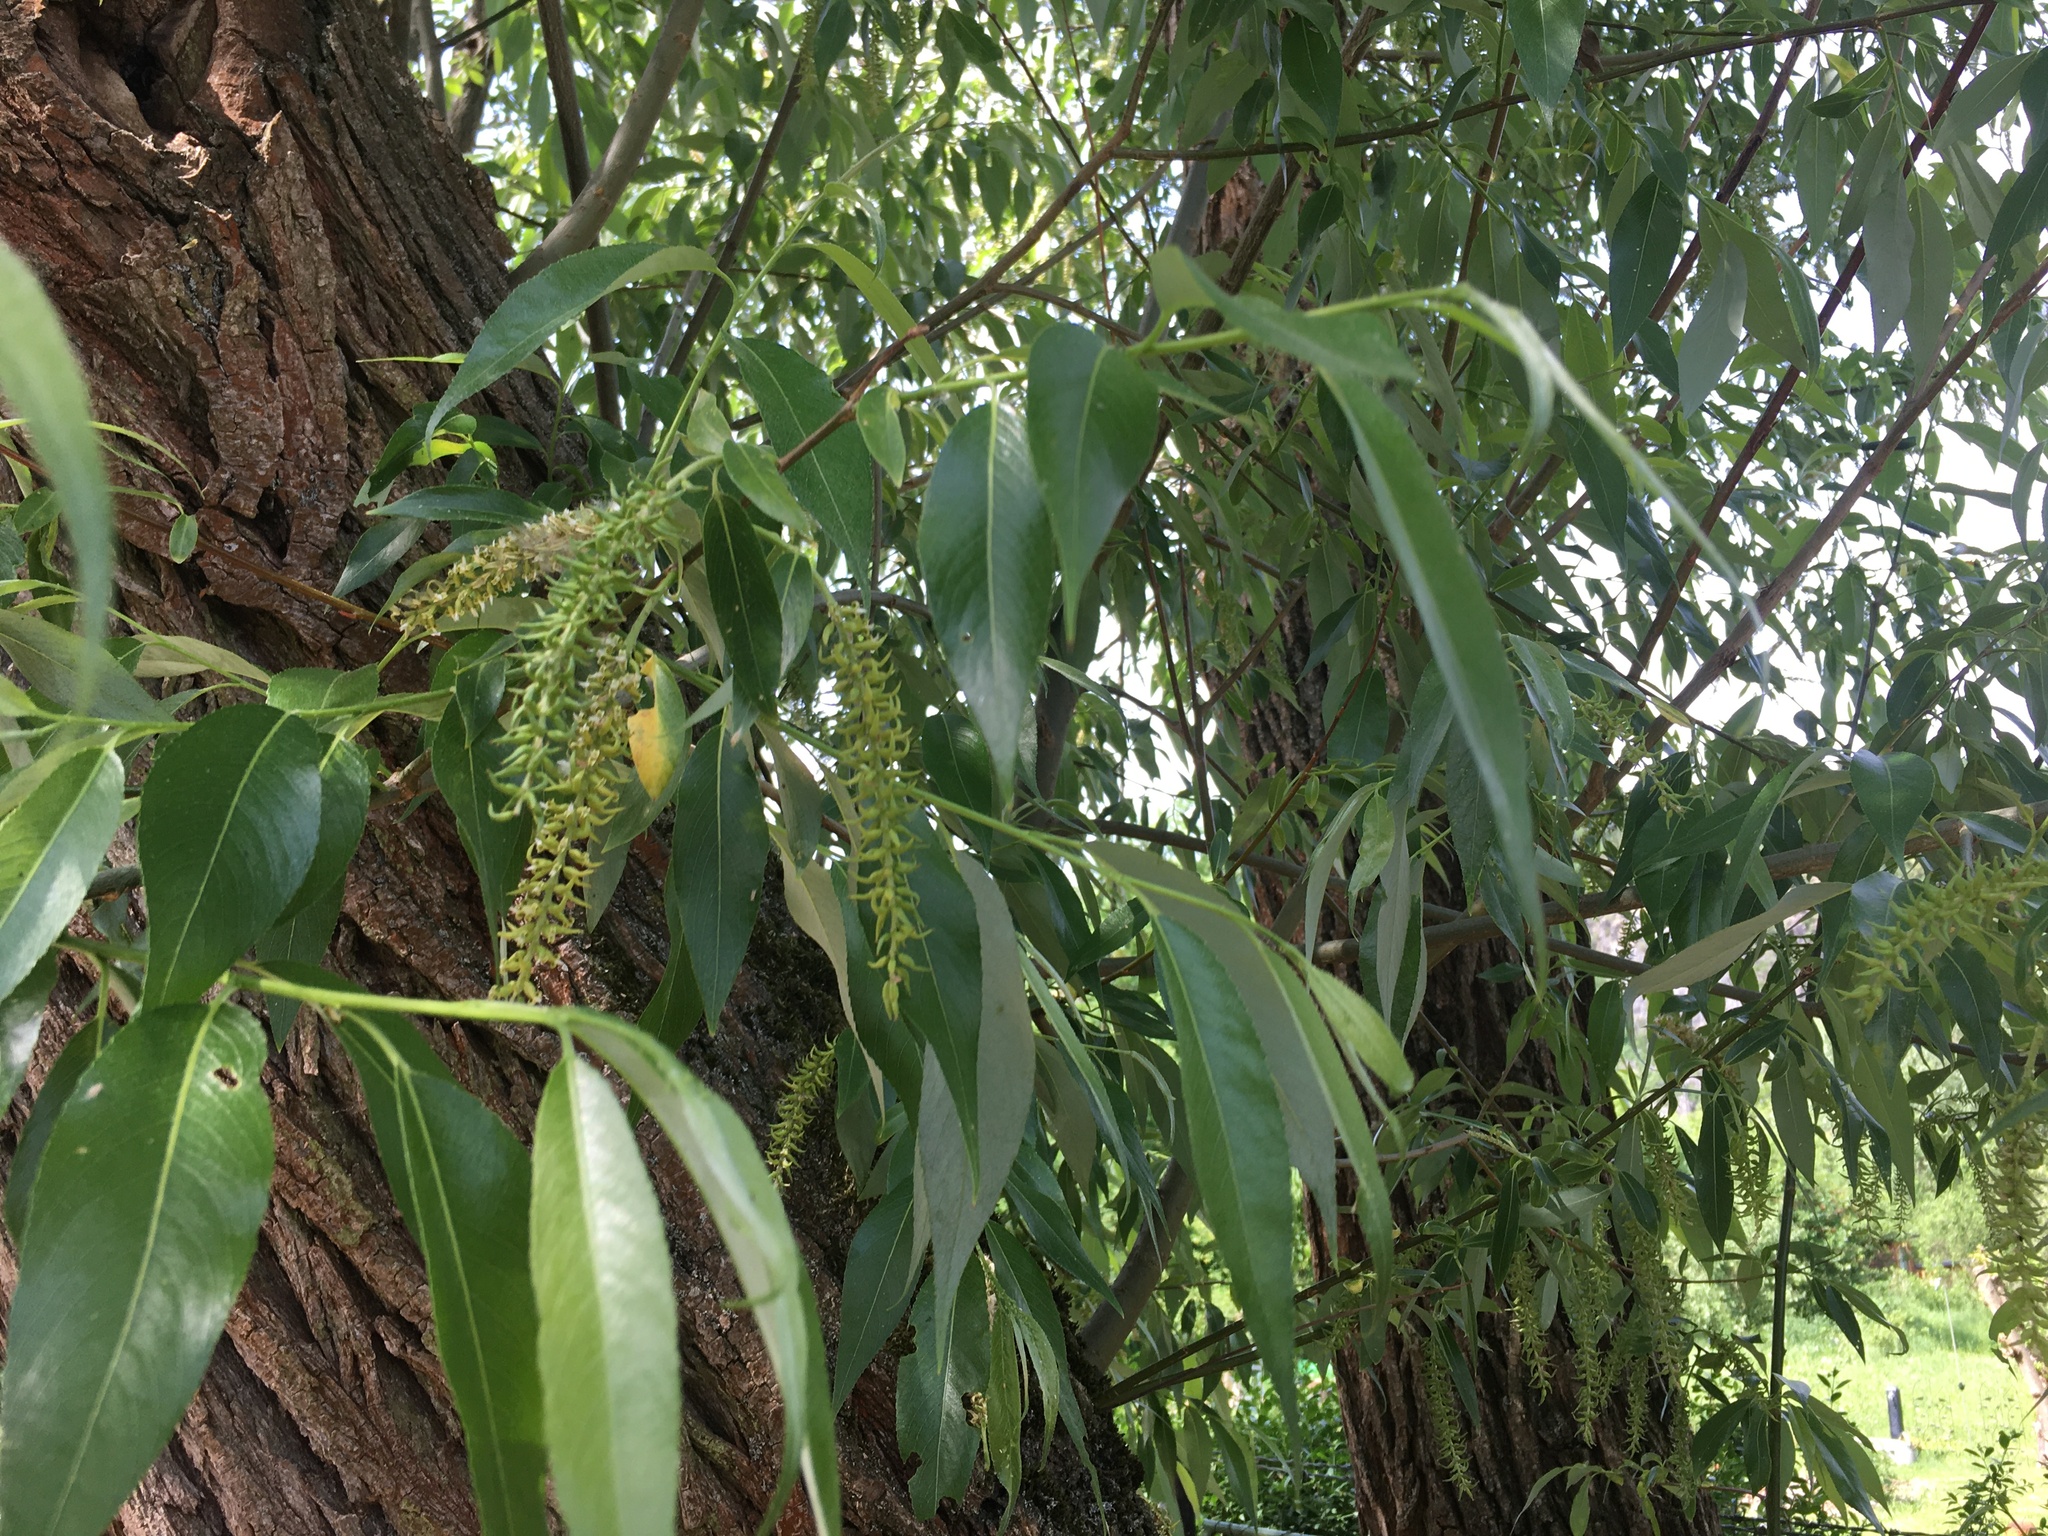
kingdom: Plantae
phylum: Tracheophyta
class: Magnoliopsida
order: Malpighiales
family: Salicaceae
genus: Salix
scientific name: Salix fragilis
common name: Crack willow
